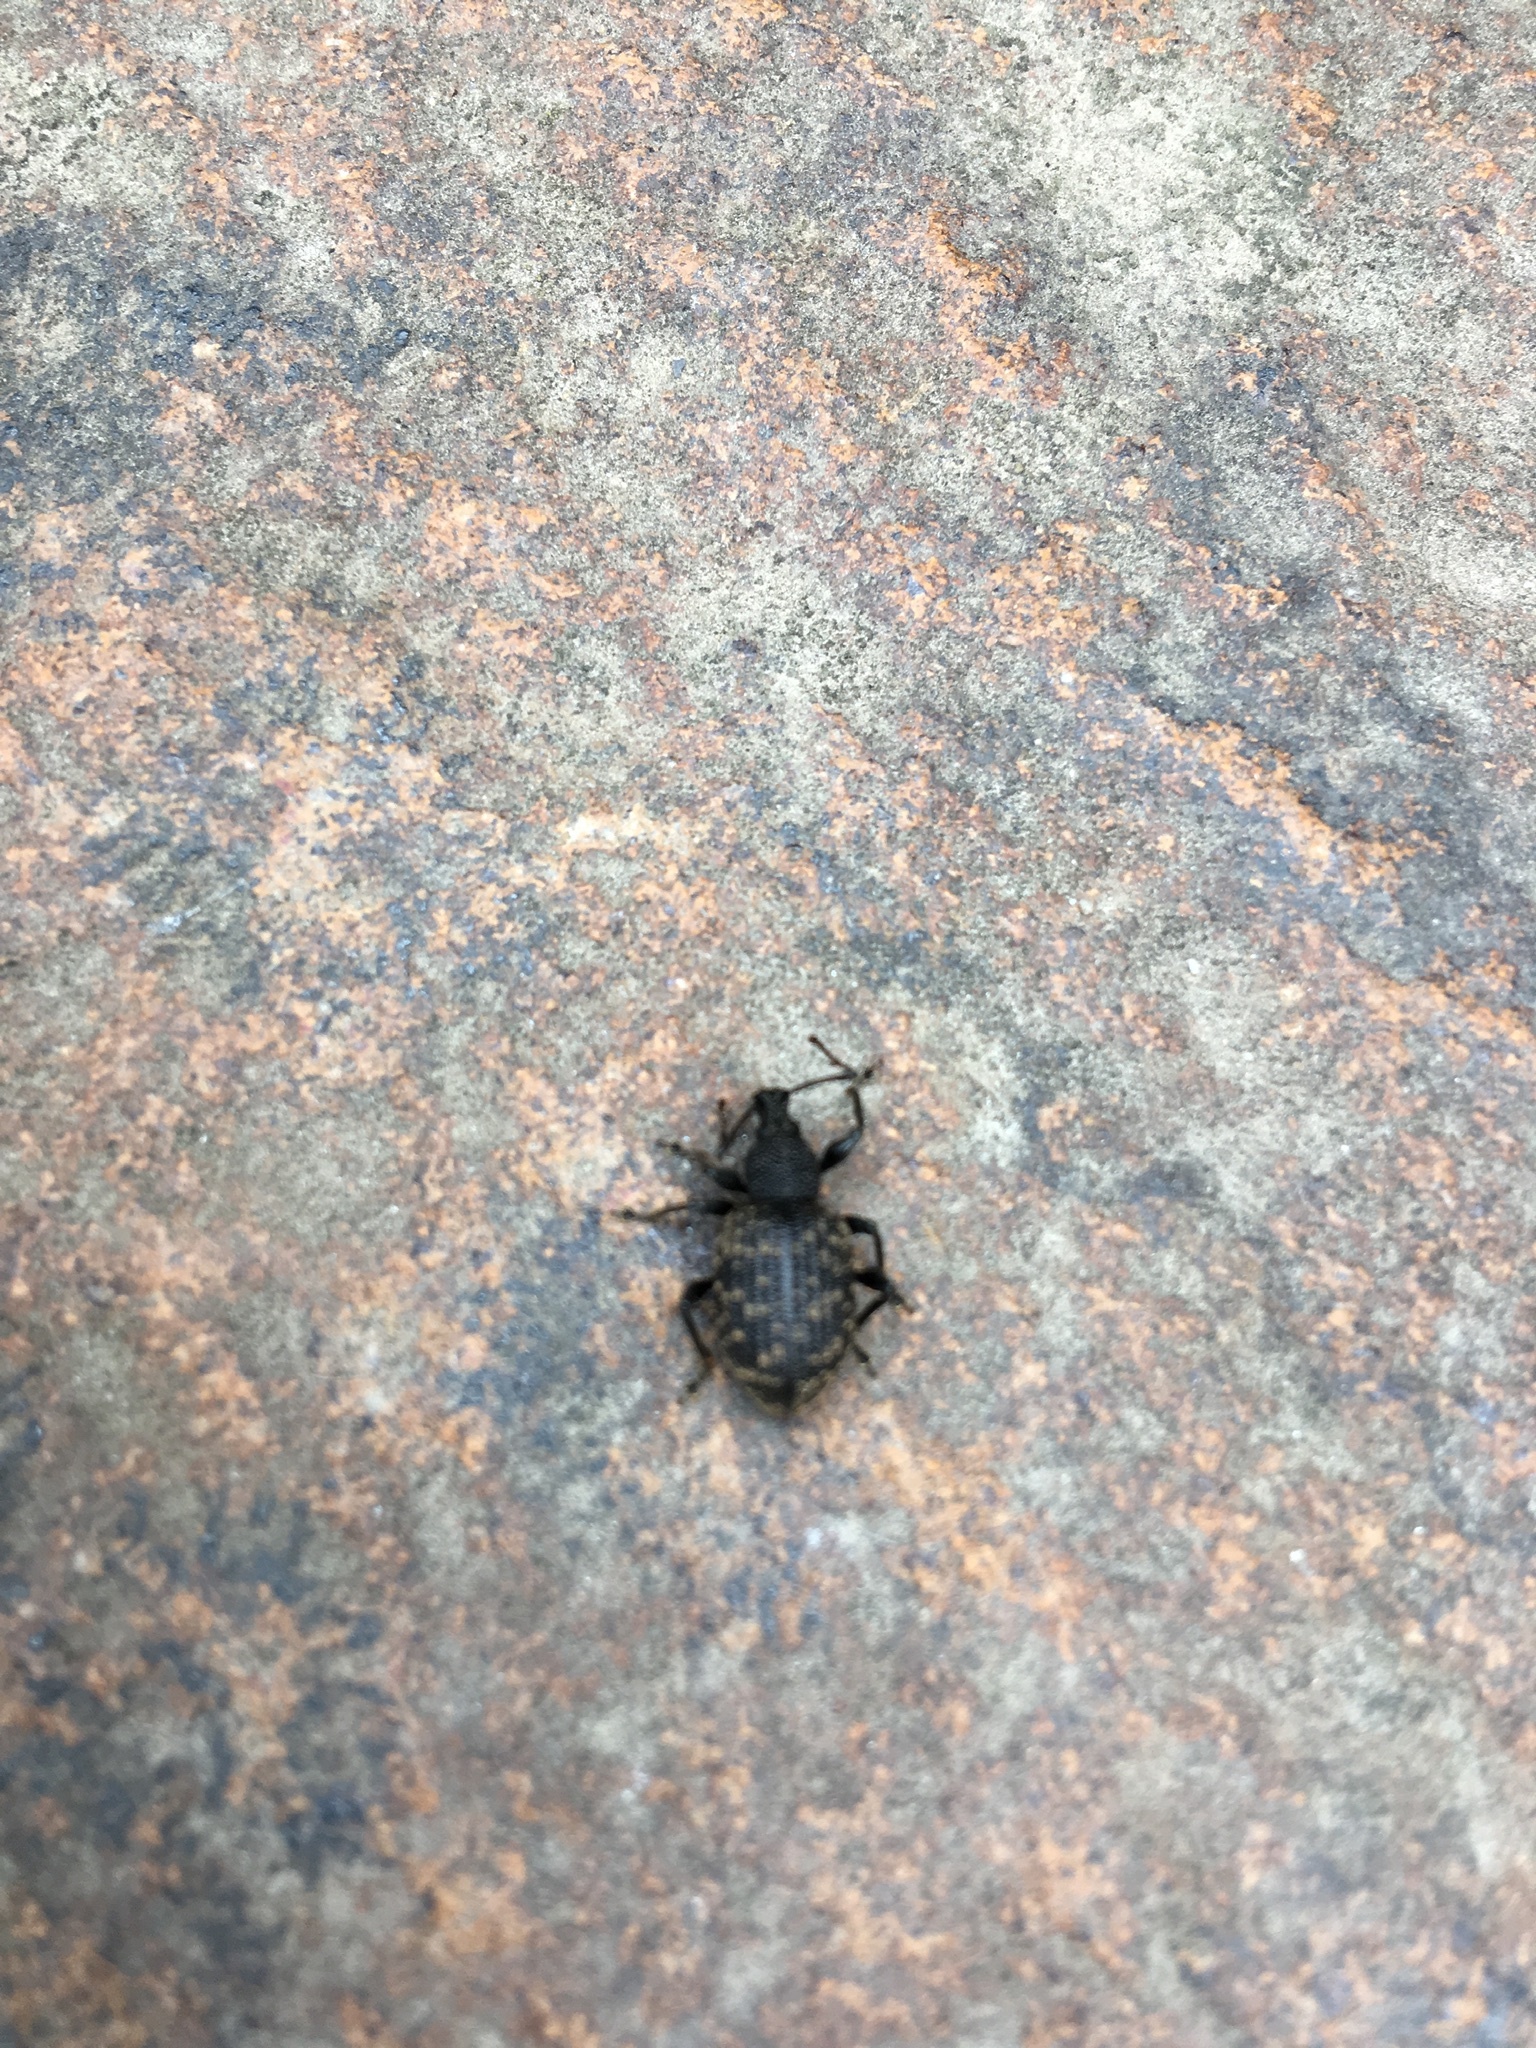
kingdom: Animalia
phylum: Arthropoda
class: Insecta
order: Coleoptera
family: Curculionidae
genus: Otiorhynchus
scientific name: Otiorhynchus sulcatus
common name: Black vine weevil
